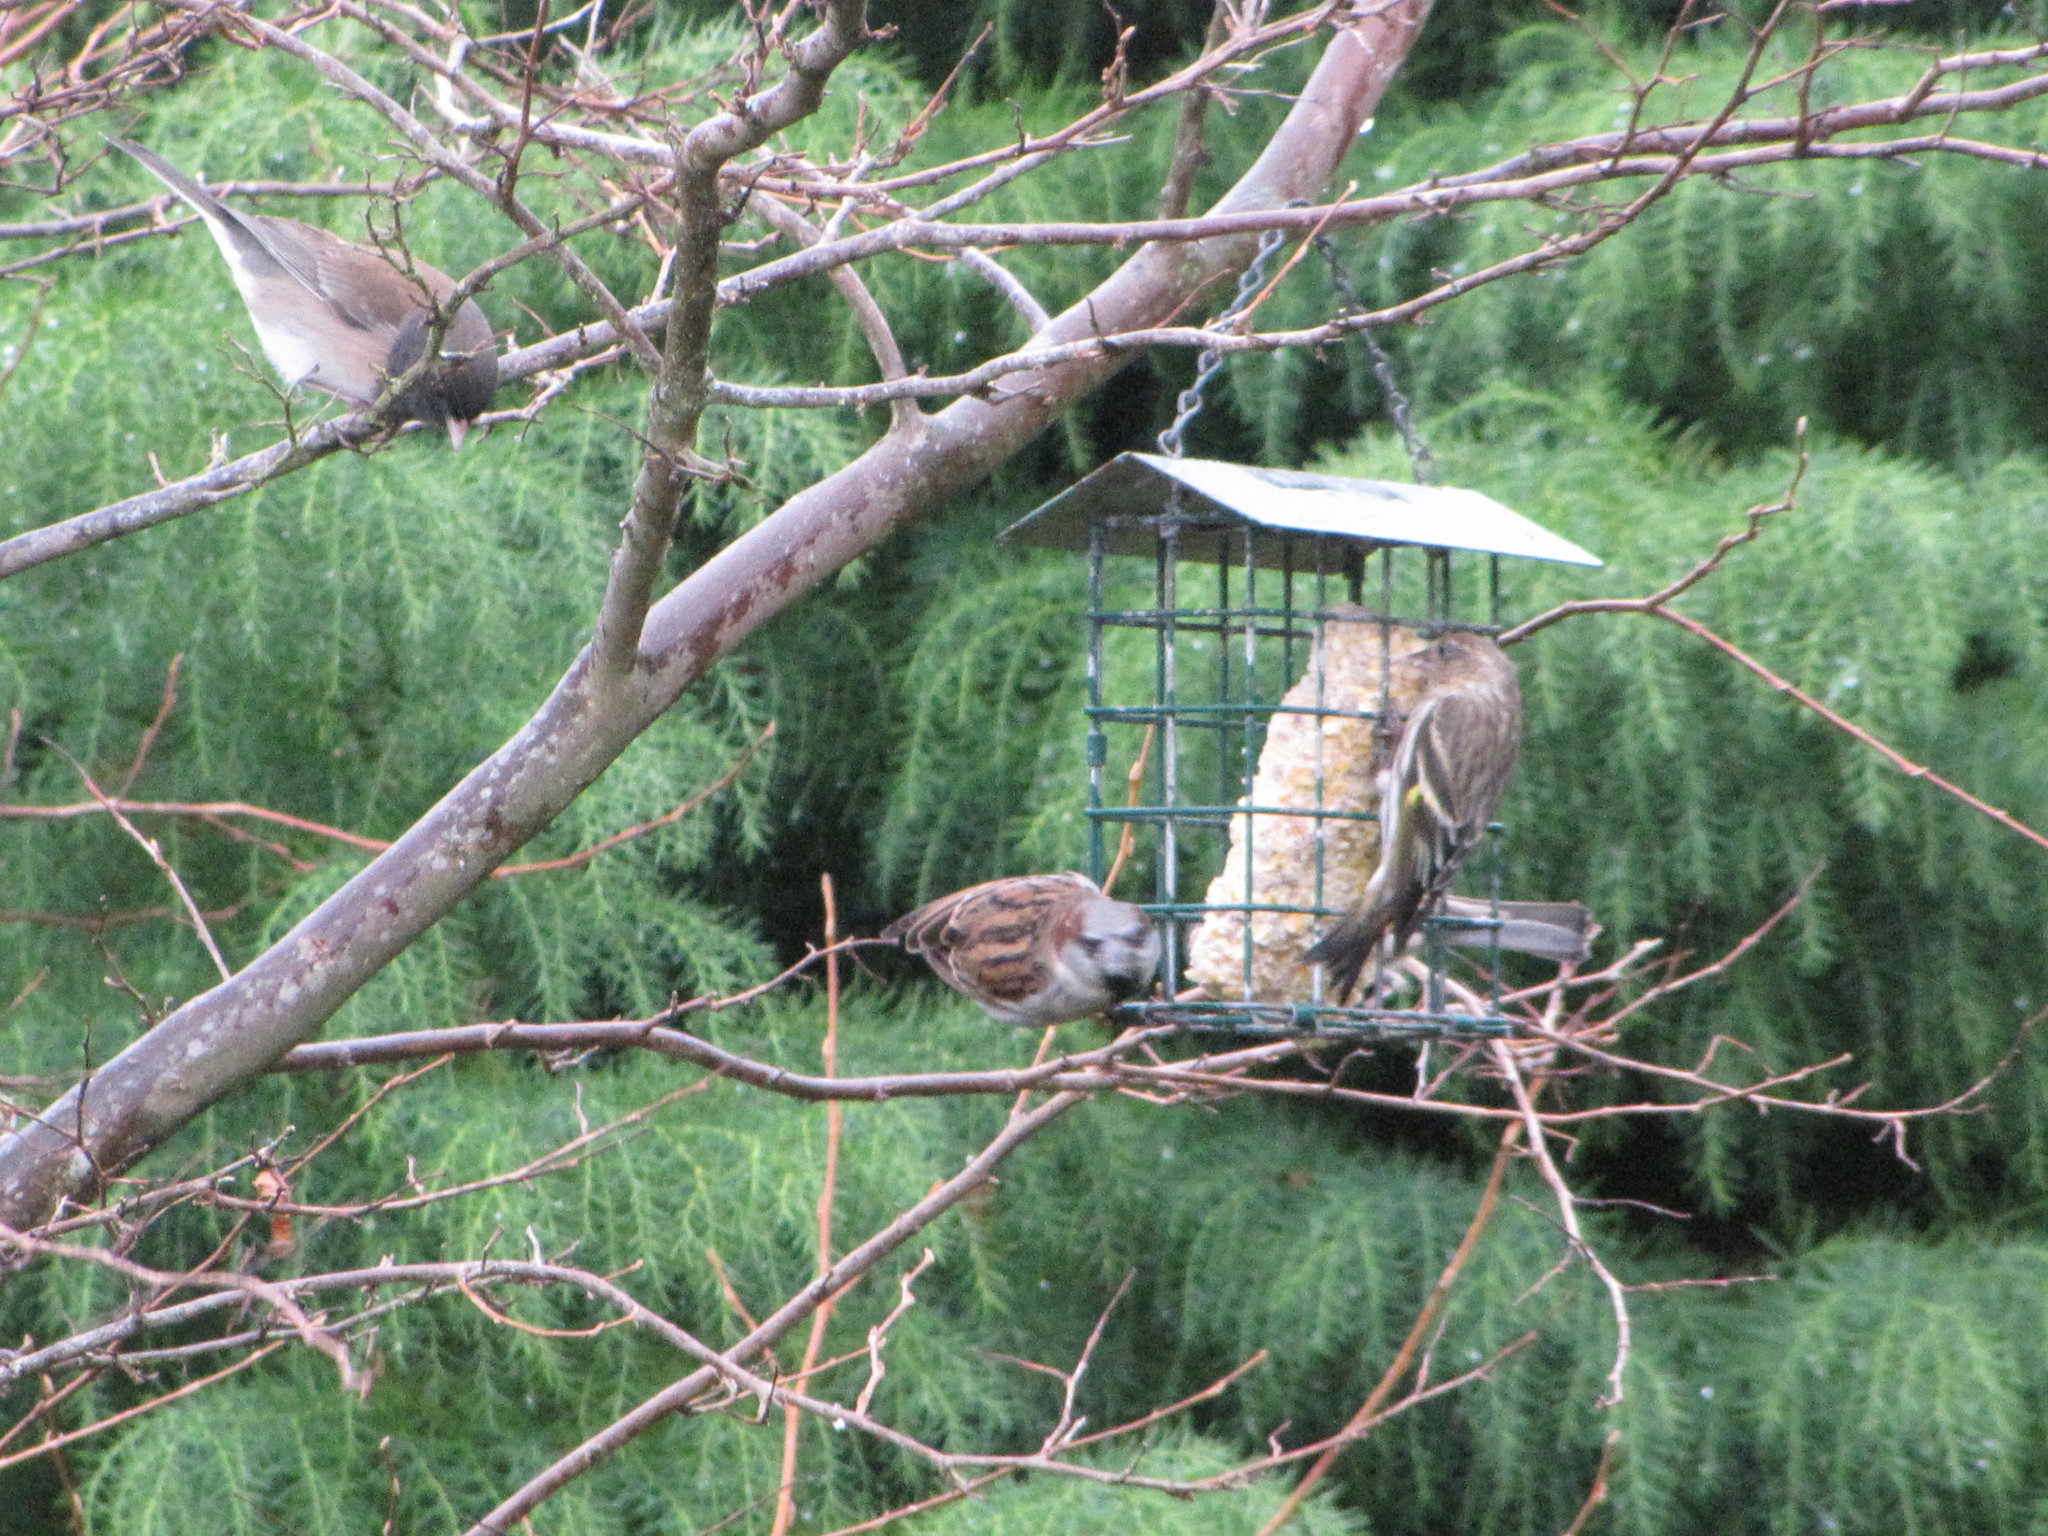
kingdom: Animalia
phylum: Chordata
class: Aves
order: Passeriformes
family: Passeridae
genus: Passer
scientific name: Passer domesticus
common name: House sparrow
